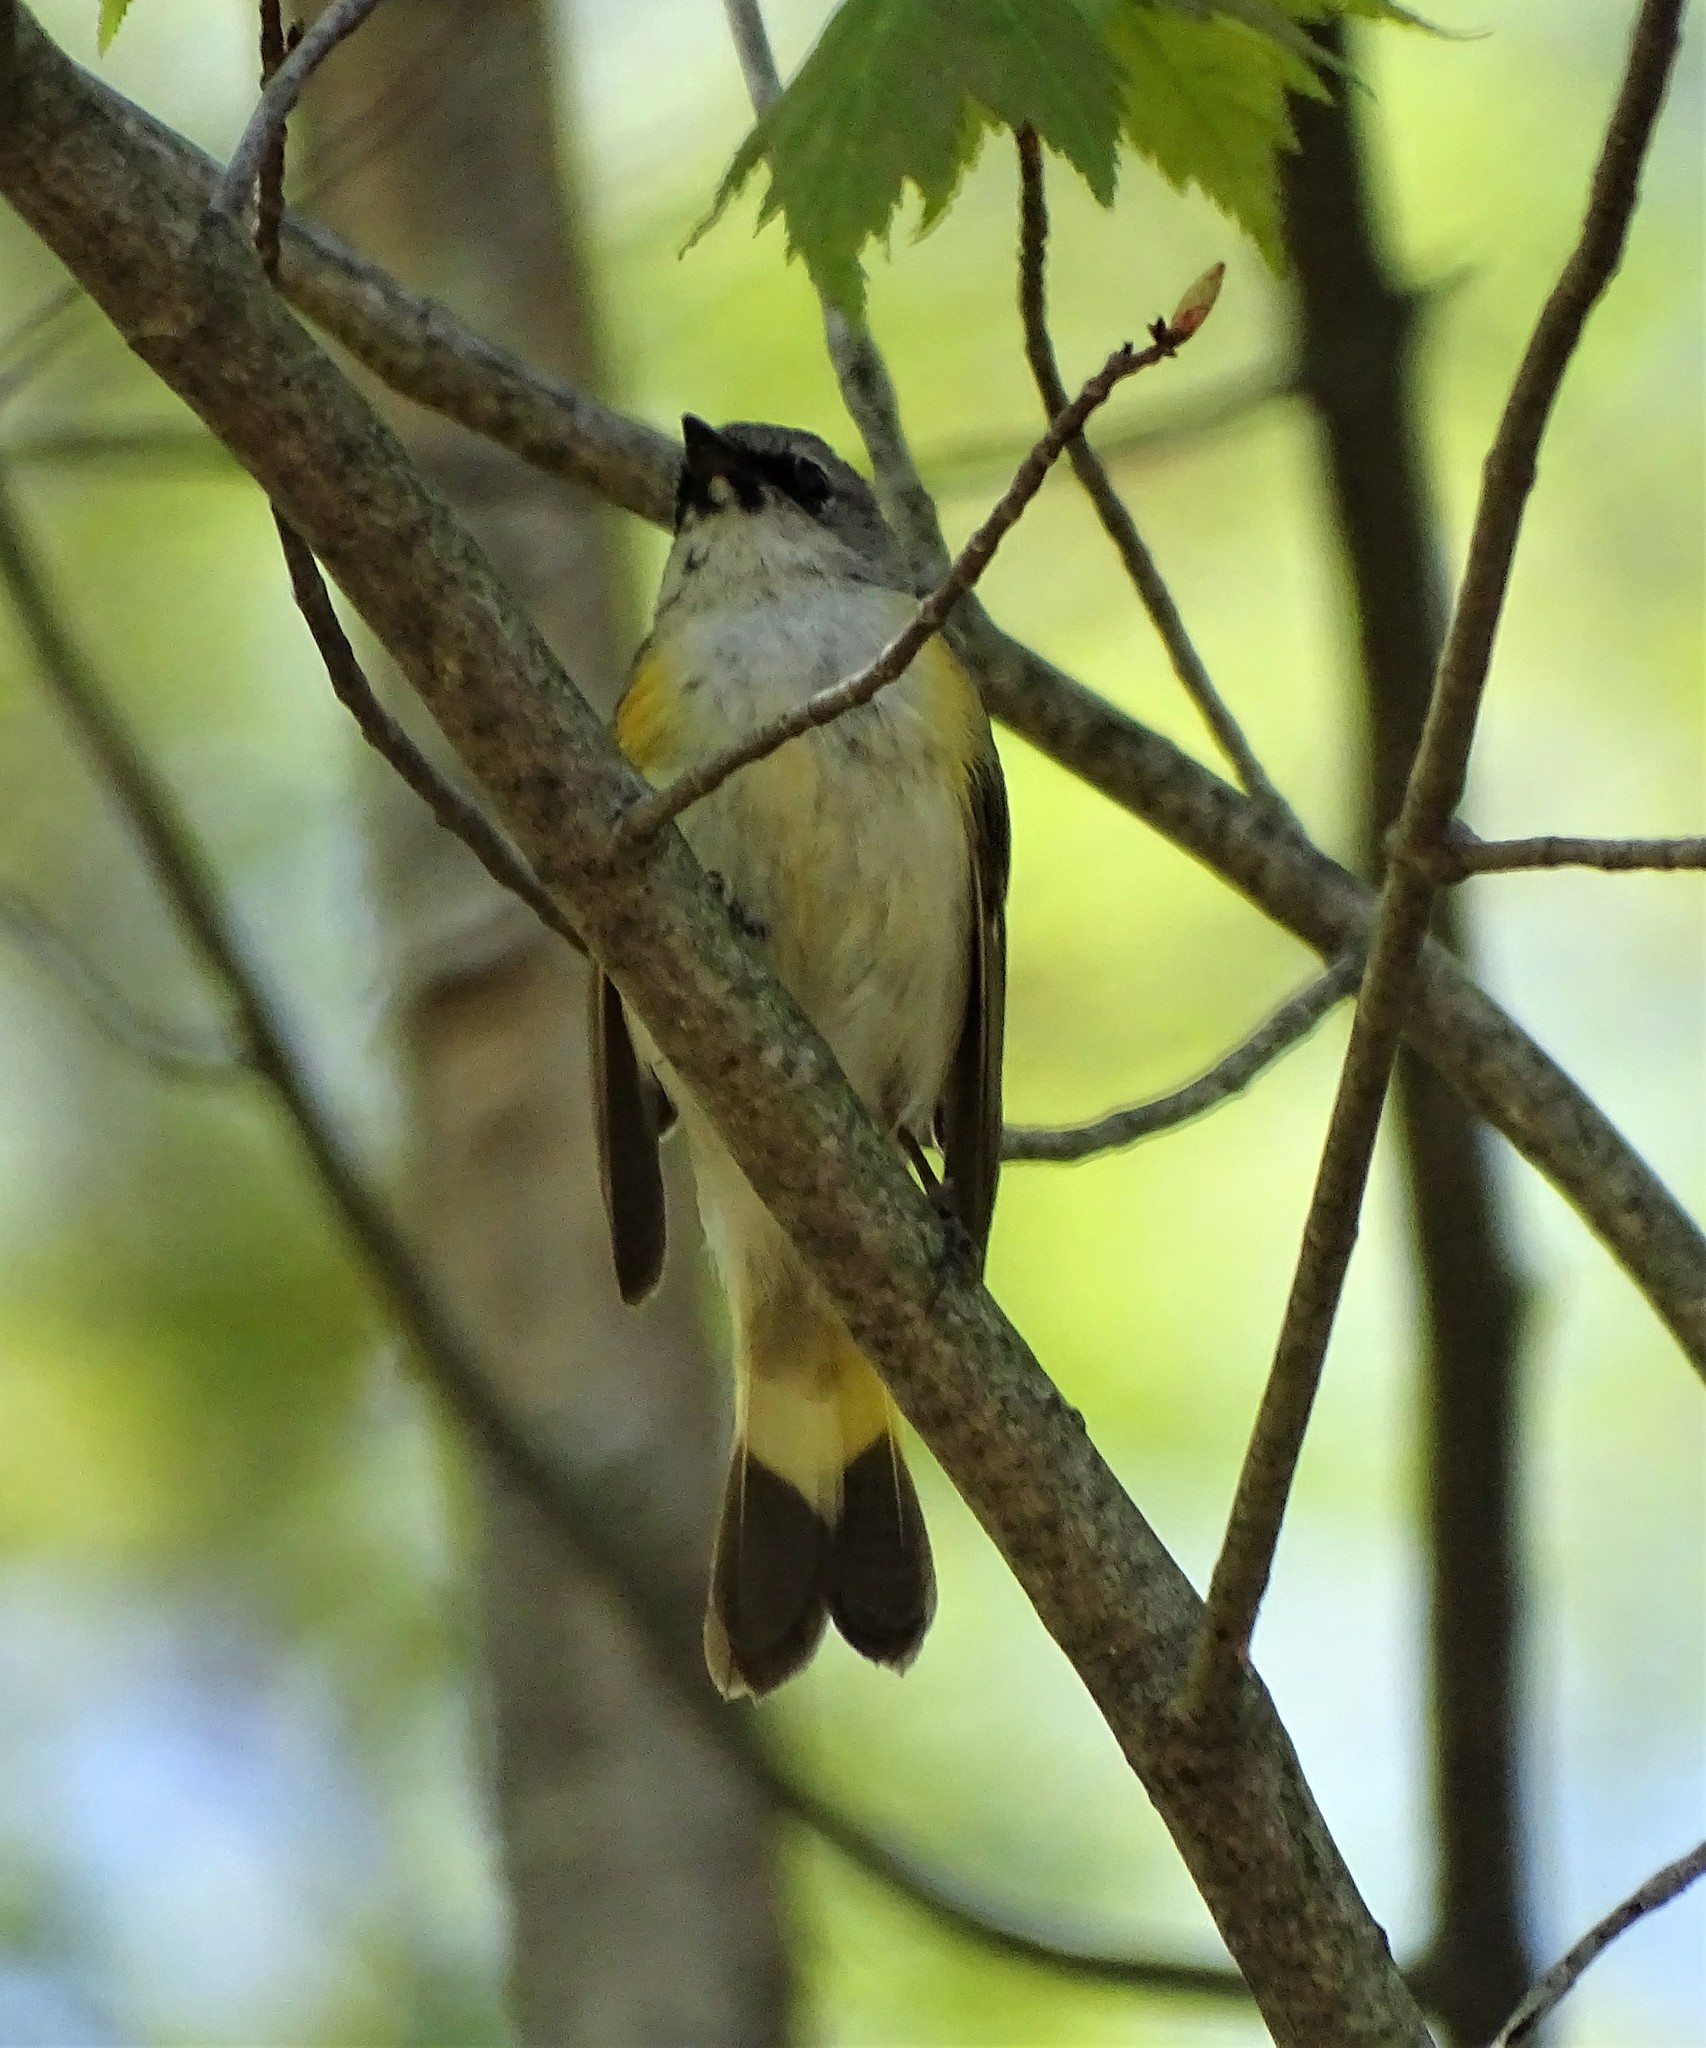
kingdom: Animalia
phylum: Chordata
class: Aves
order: Passeriformes
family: Parulidae
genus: Setophaga
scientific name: Setophaga ruticilla
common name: American redstart
